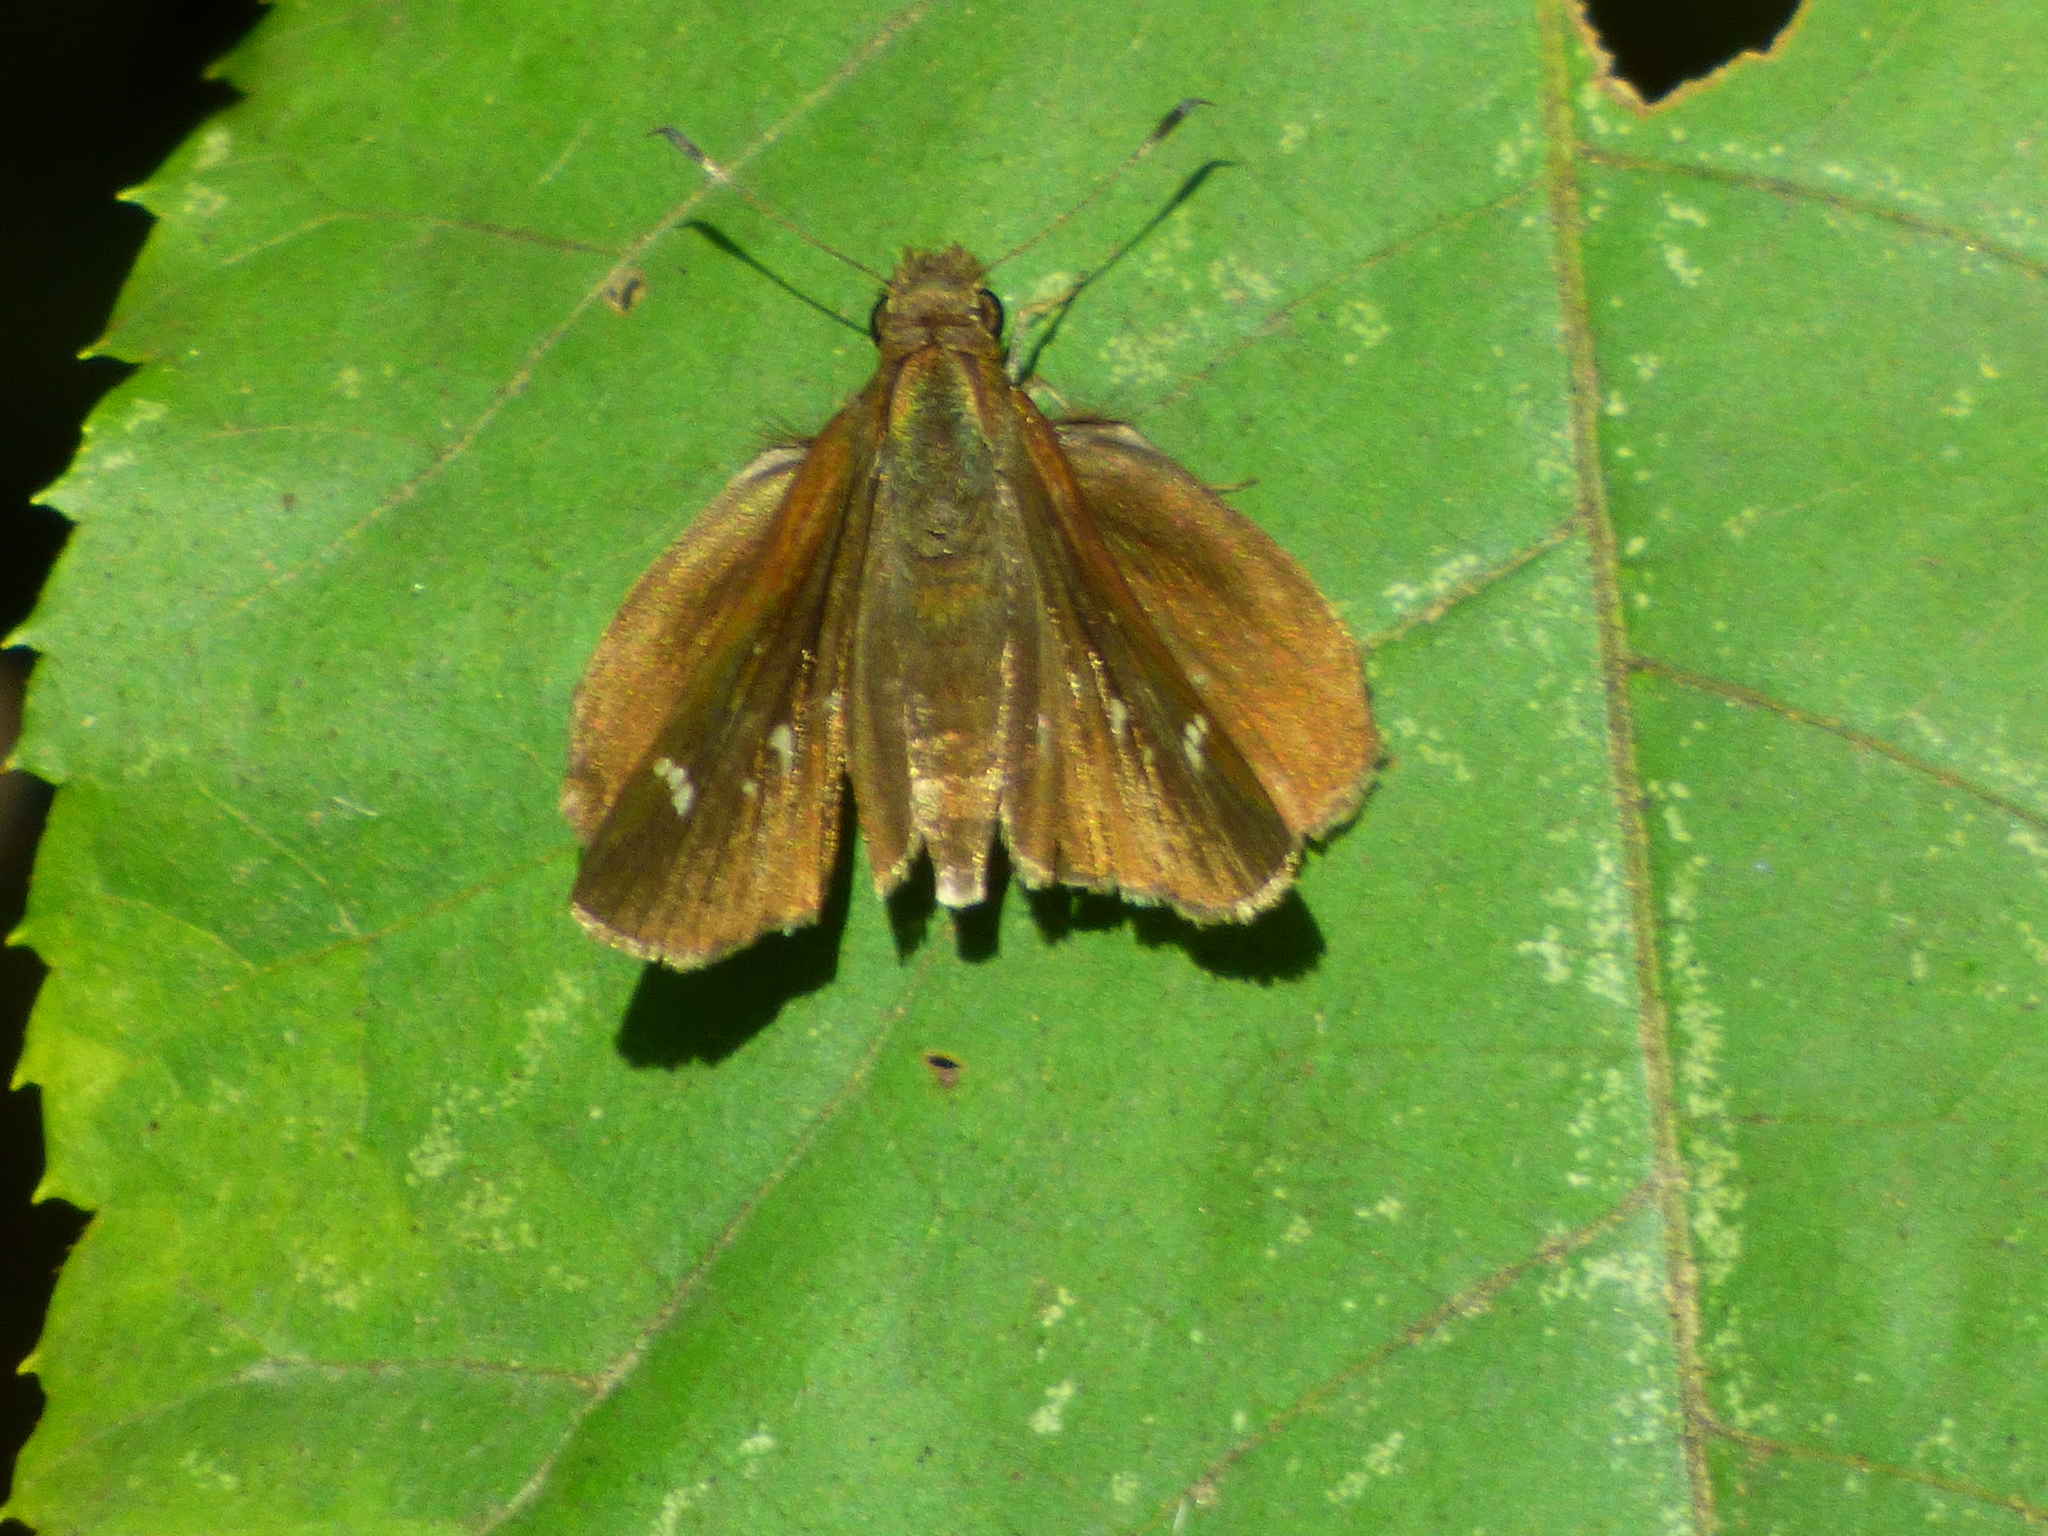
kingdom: Animalia
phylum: Arthropoda
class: Insecta
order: Lepidoptera
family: Hesperiidae
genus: Lerema
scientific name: Lerema accius
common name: Clouded skipper
